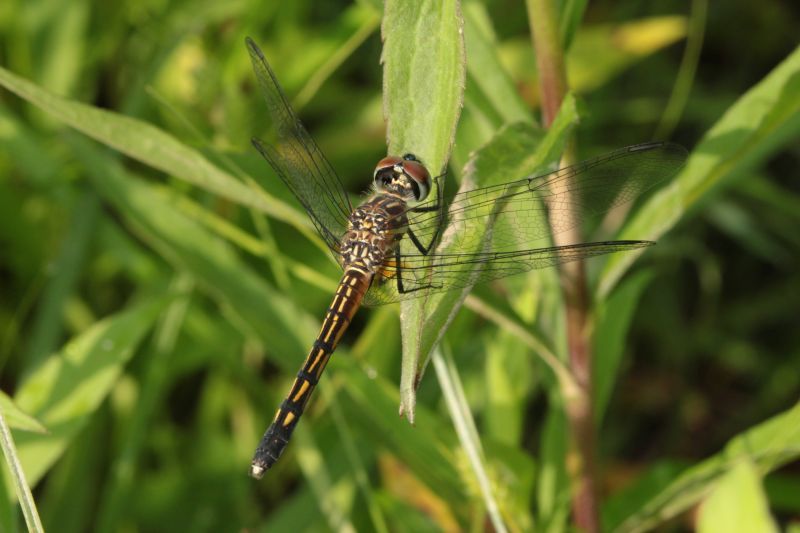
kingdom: Animalia
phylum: Arthropoda
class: Insecta
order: Odonata
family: Libellulidae
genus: Pachydiplax
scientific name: Pachydiplax longipennis
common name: Blue dasher
